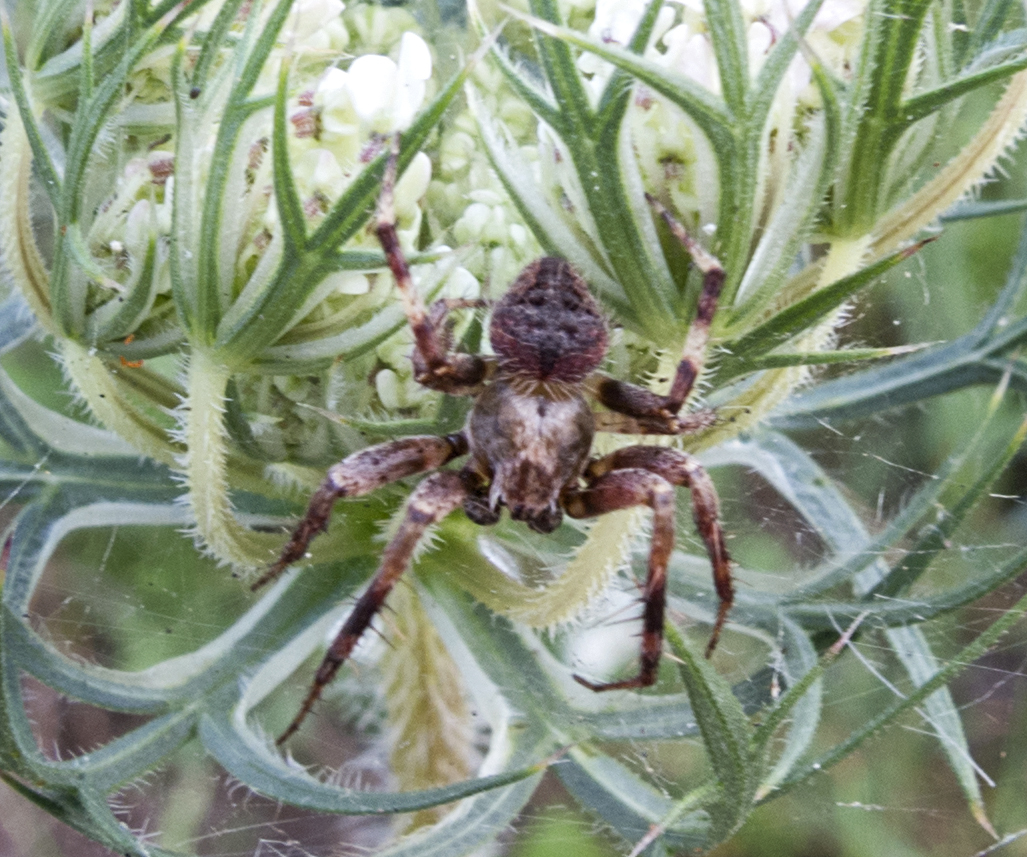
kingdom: Animalia
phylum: Arthropoda
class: Arachnida
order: Araneae
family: Araneidae
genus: Neoscona
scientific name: Neoscona subfusca
